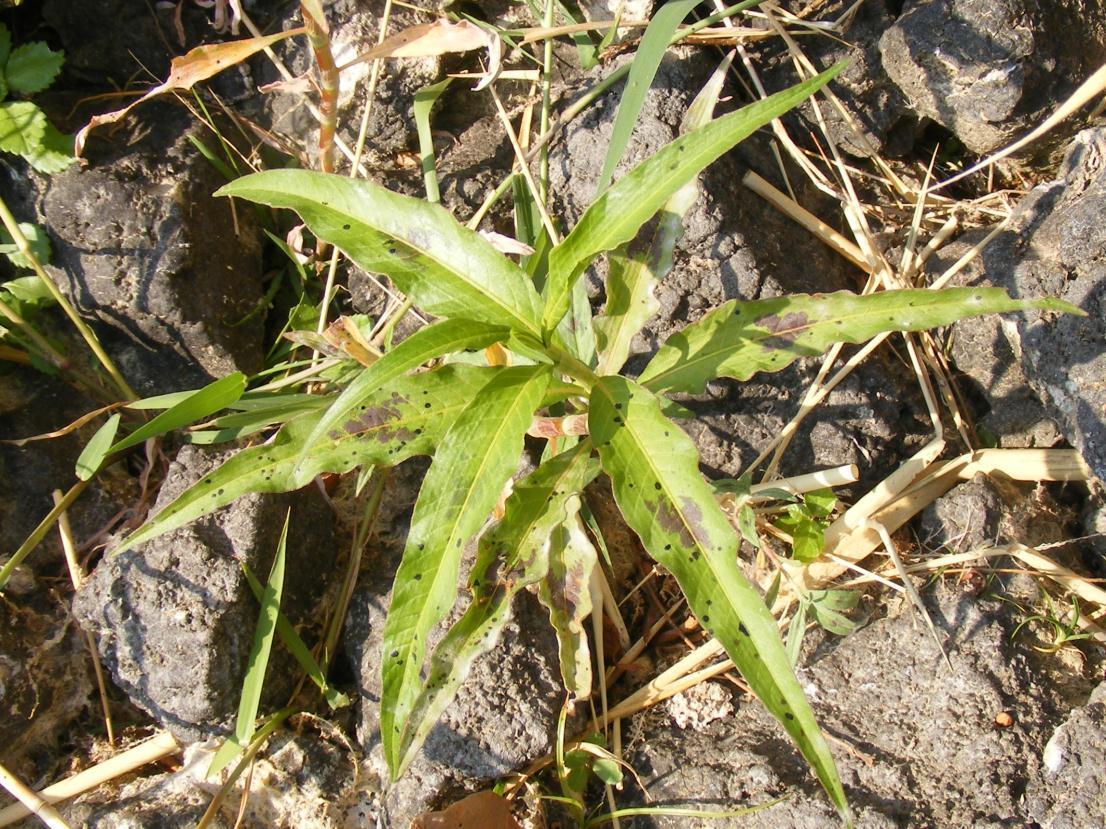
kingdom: Plantae
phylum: Tracheophyta
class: Magnoliopsida
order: Caryophyllales
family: Polygonaceae
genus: Persicaria
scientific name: Persicaria lapathifolia
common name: Curlytop knotweed
